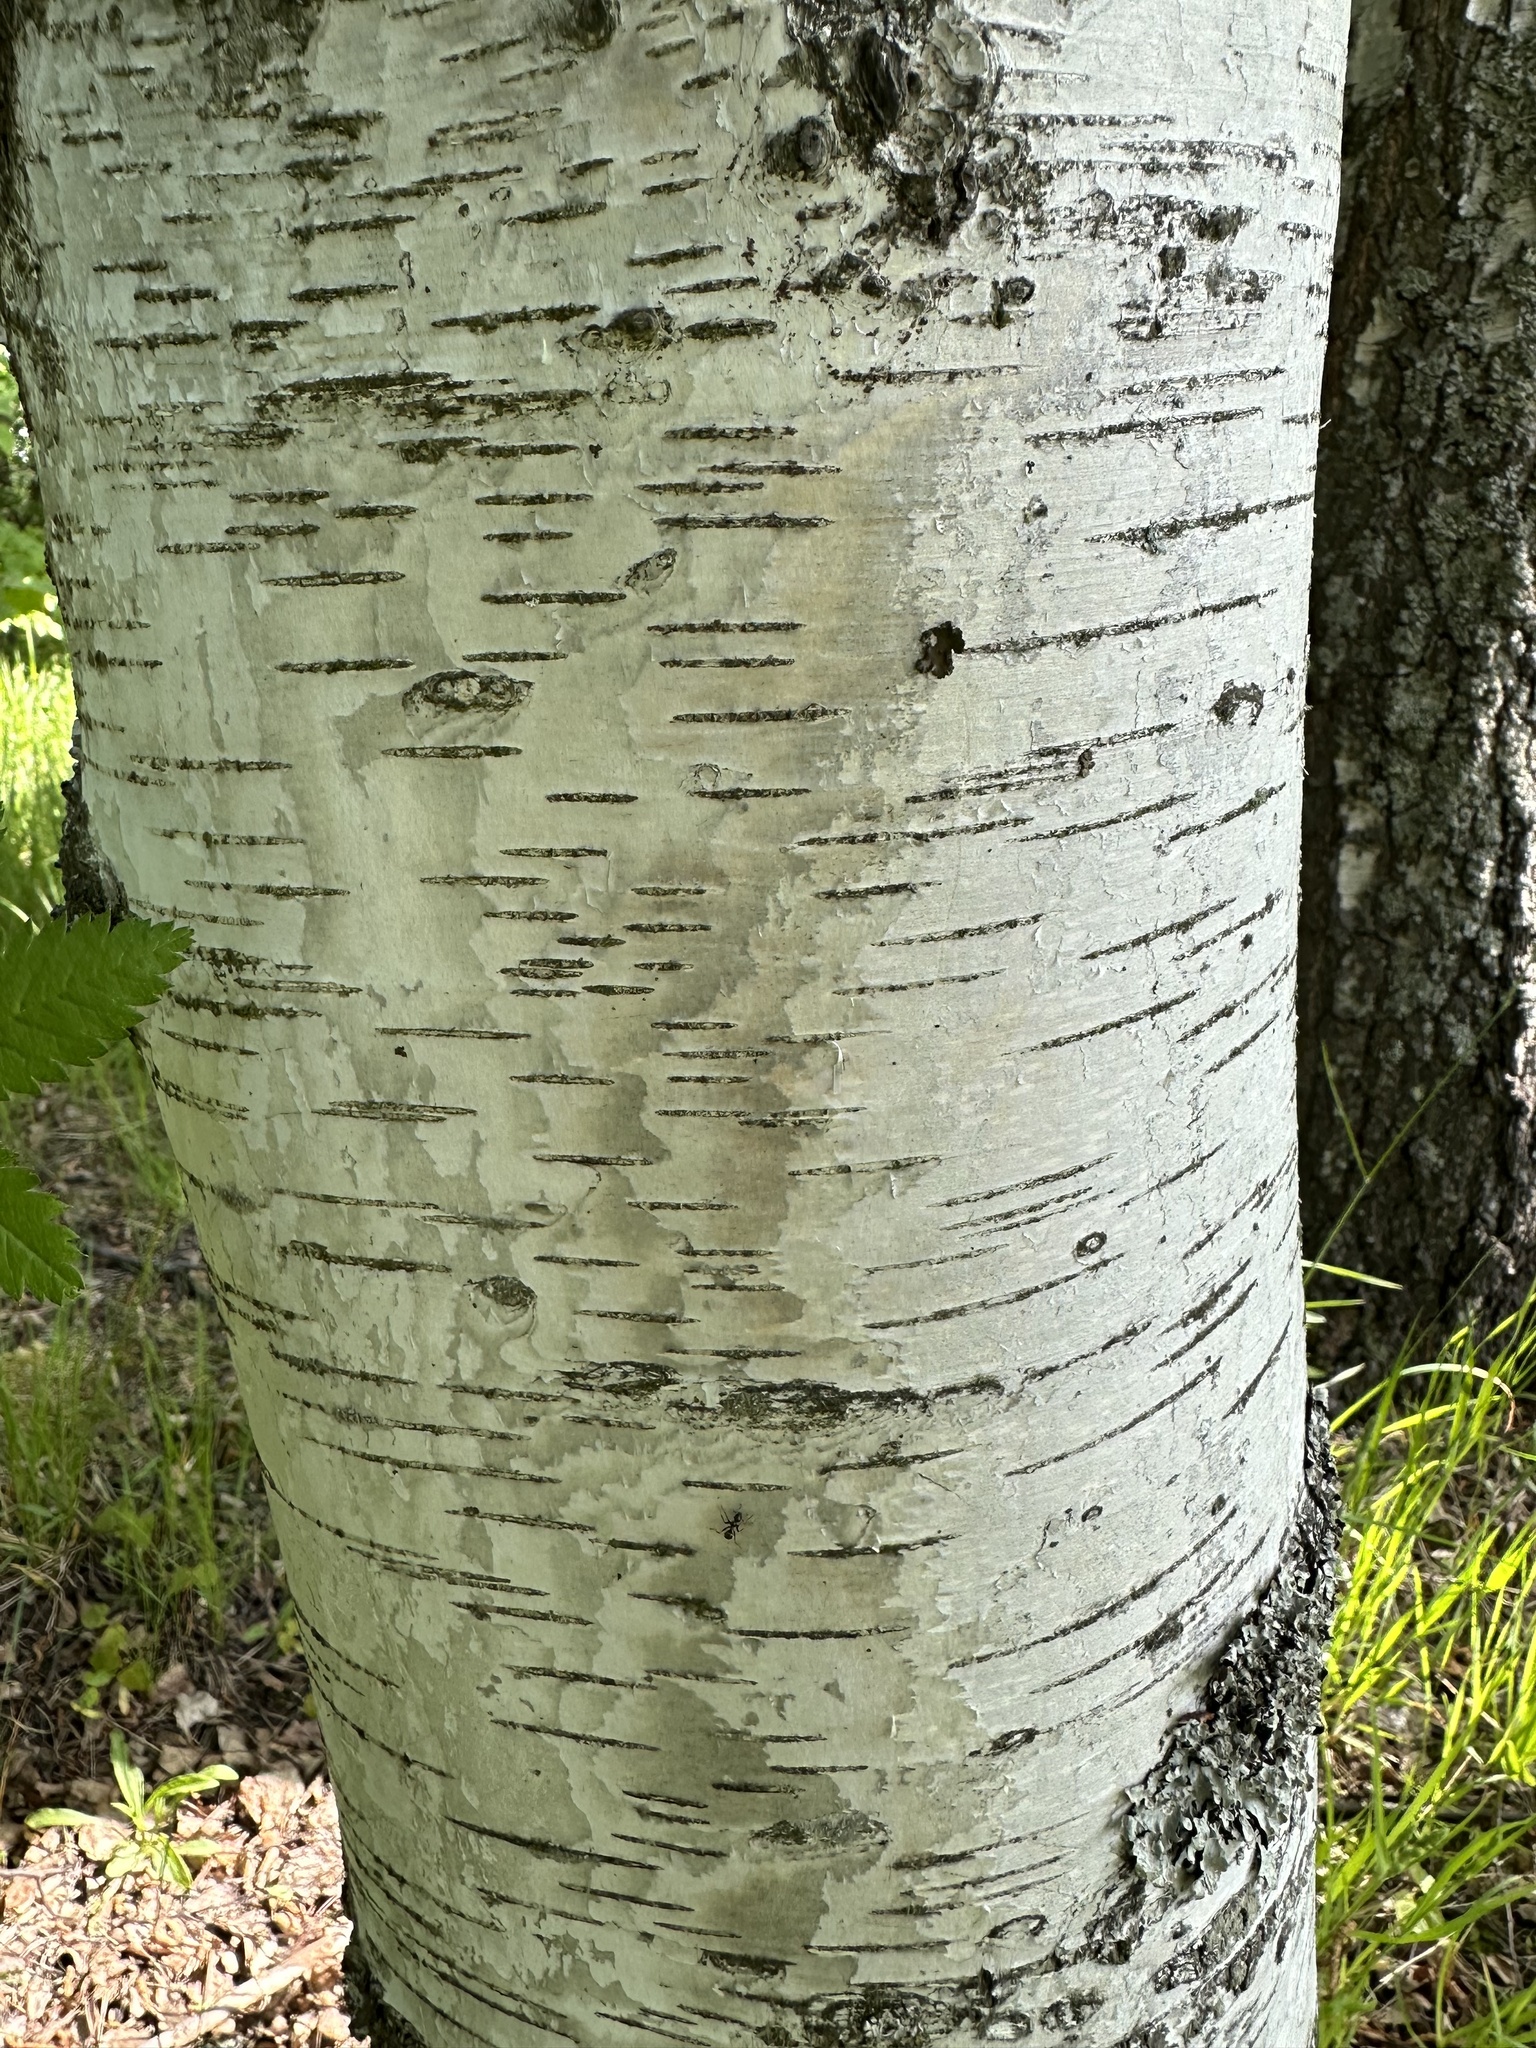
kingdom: Plantae
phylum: Tracheophyta
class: Magnoliopsida
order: Fagales
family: Betulaceae
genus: Betula
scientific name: Betula pubescens
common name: Downy birch
